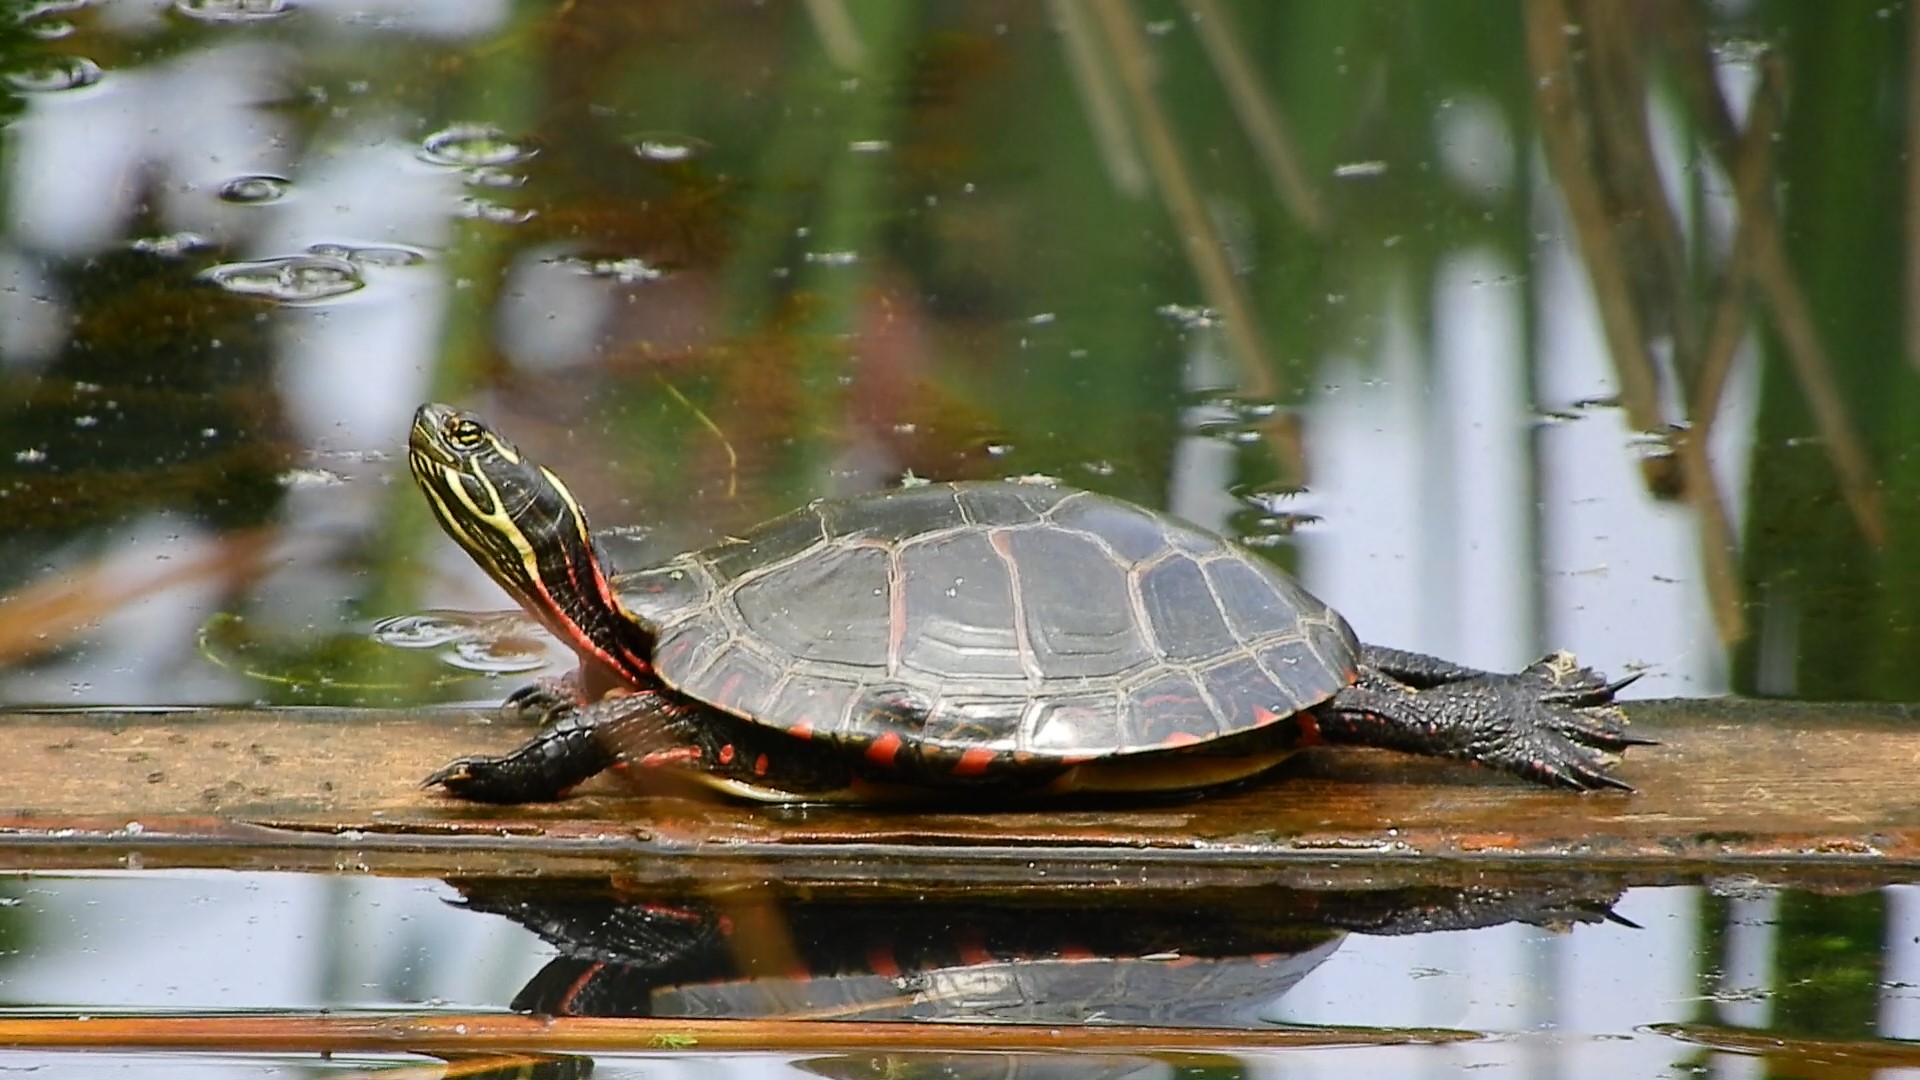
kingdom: Animalia
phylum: Chordata
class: Testudines
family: Emydidae
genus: Chrysemys
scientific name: Chrysemys picta
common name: Painted turtle
